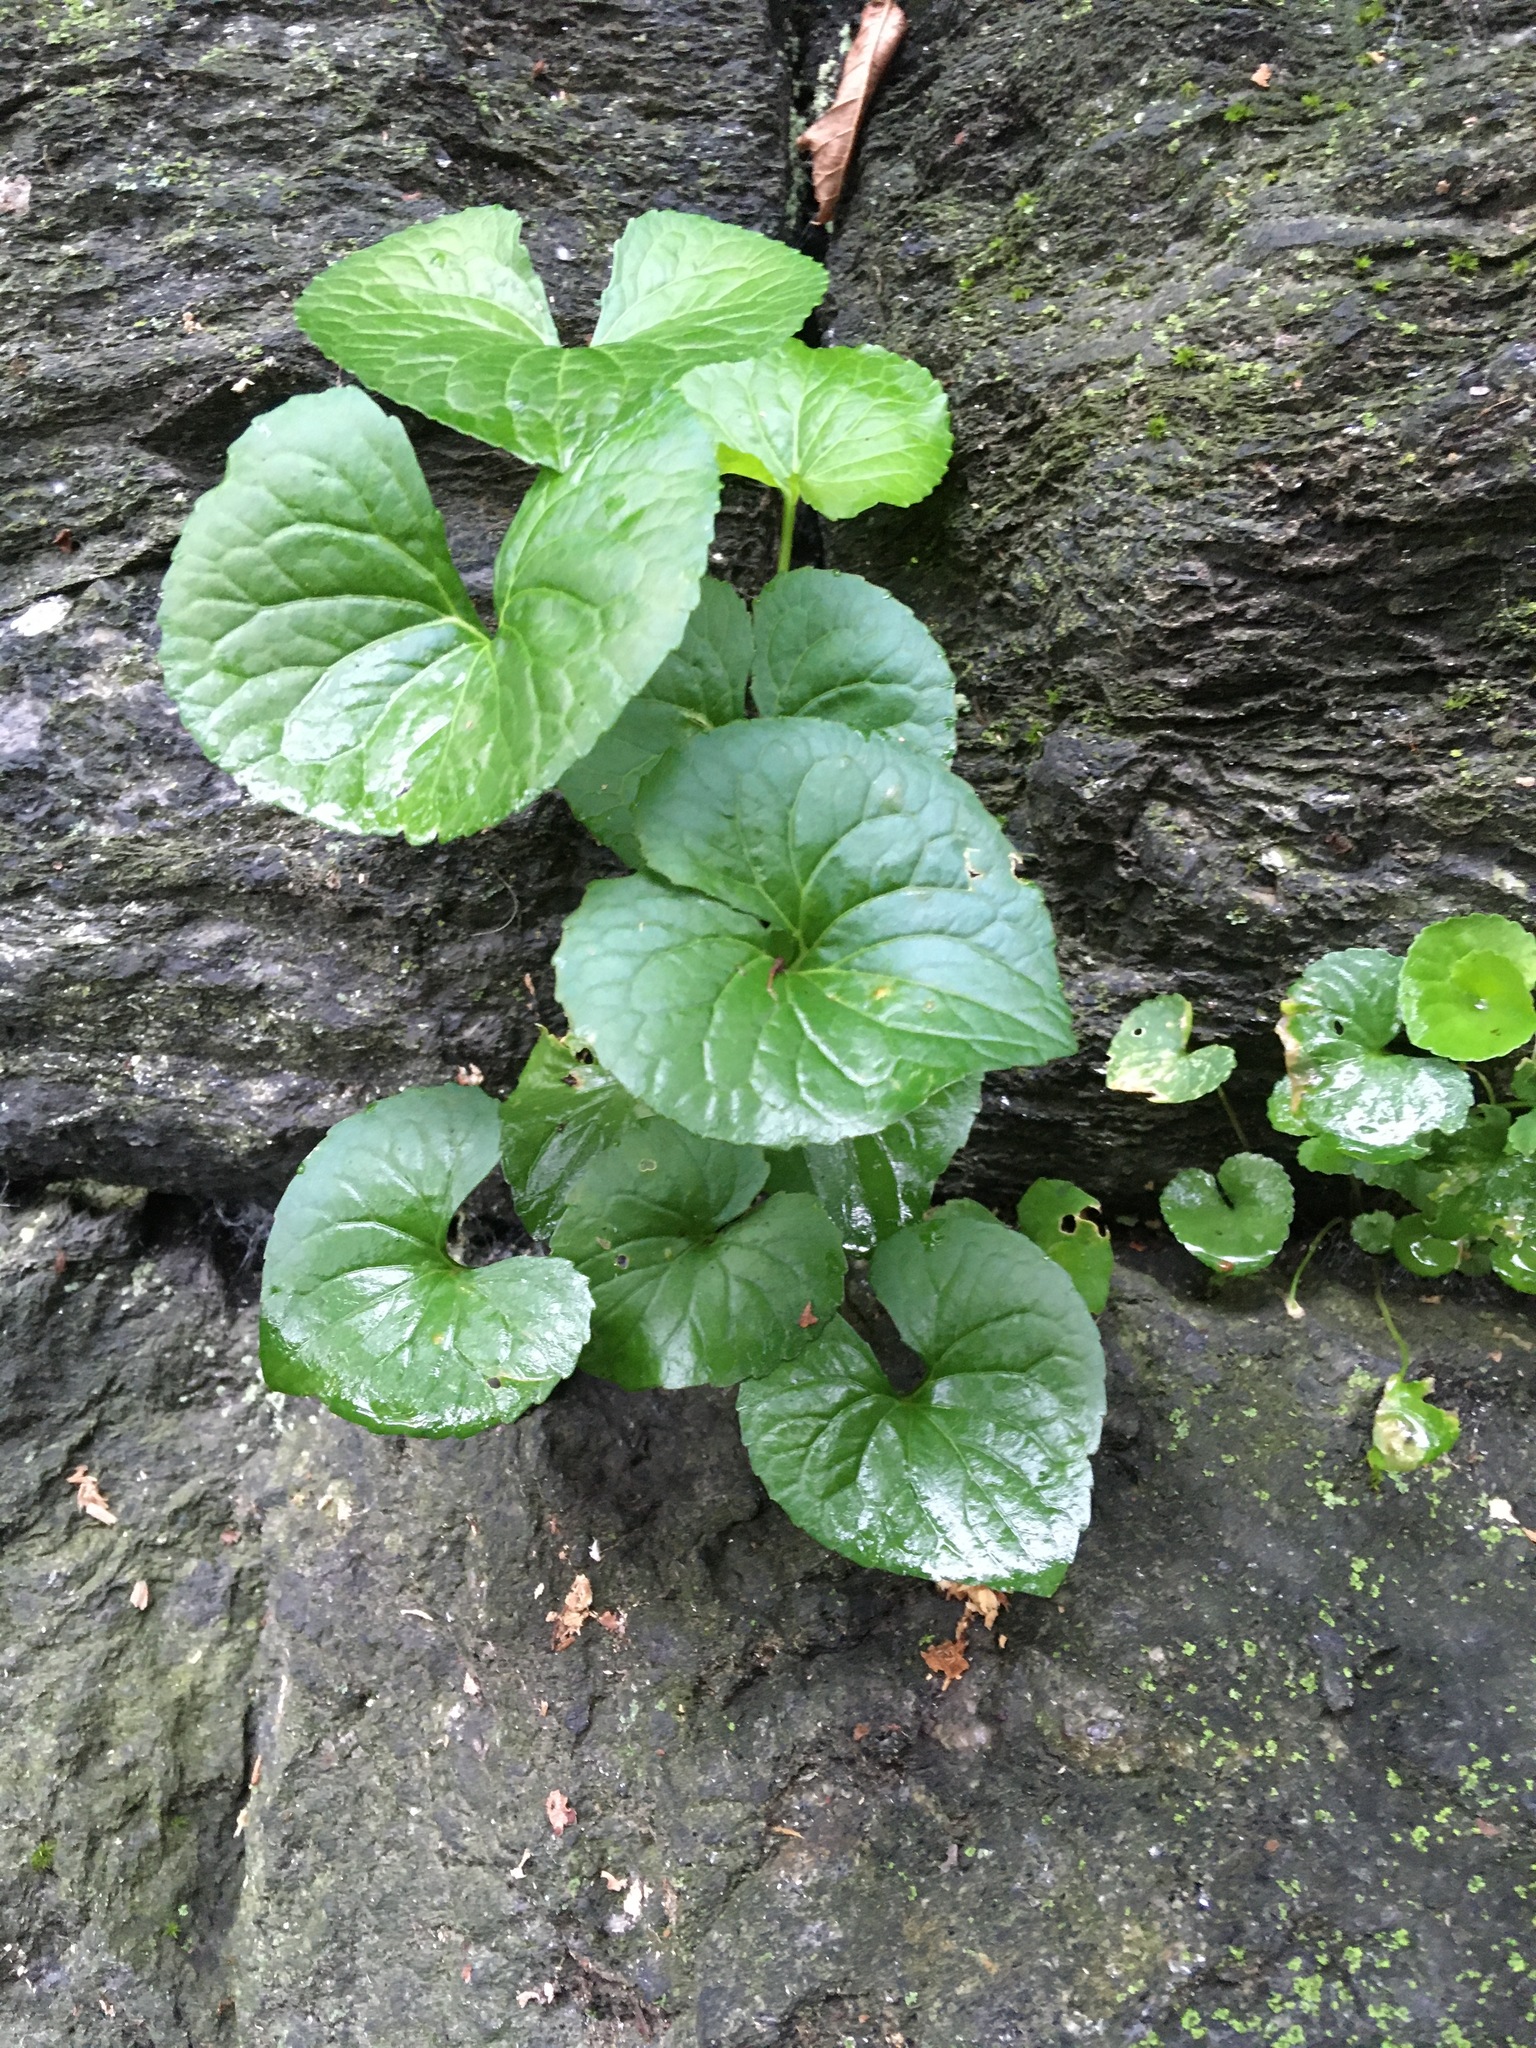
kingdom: Plantae
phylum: Tracheophyta
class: Magnoliopsida
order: Malpighiales
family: Violaceae
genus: Viola
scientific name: Viola sororia
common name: Dooryard violet
